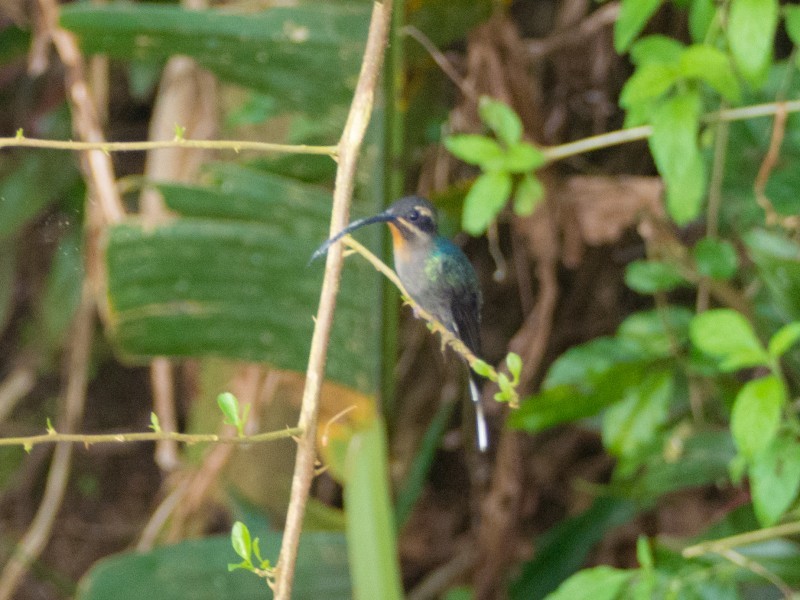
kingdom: Animalia
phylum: Chordata
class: Aves
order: Apodiformes
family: Trochilidae
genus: Phaethornis
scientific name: Phaethornis guy
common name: Green hermit
